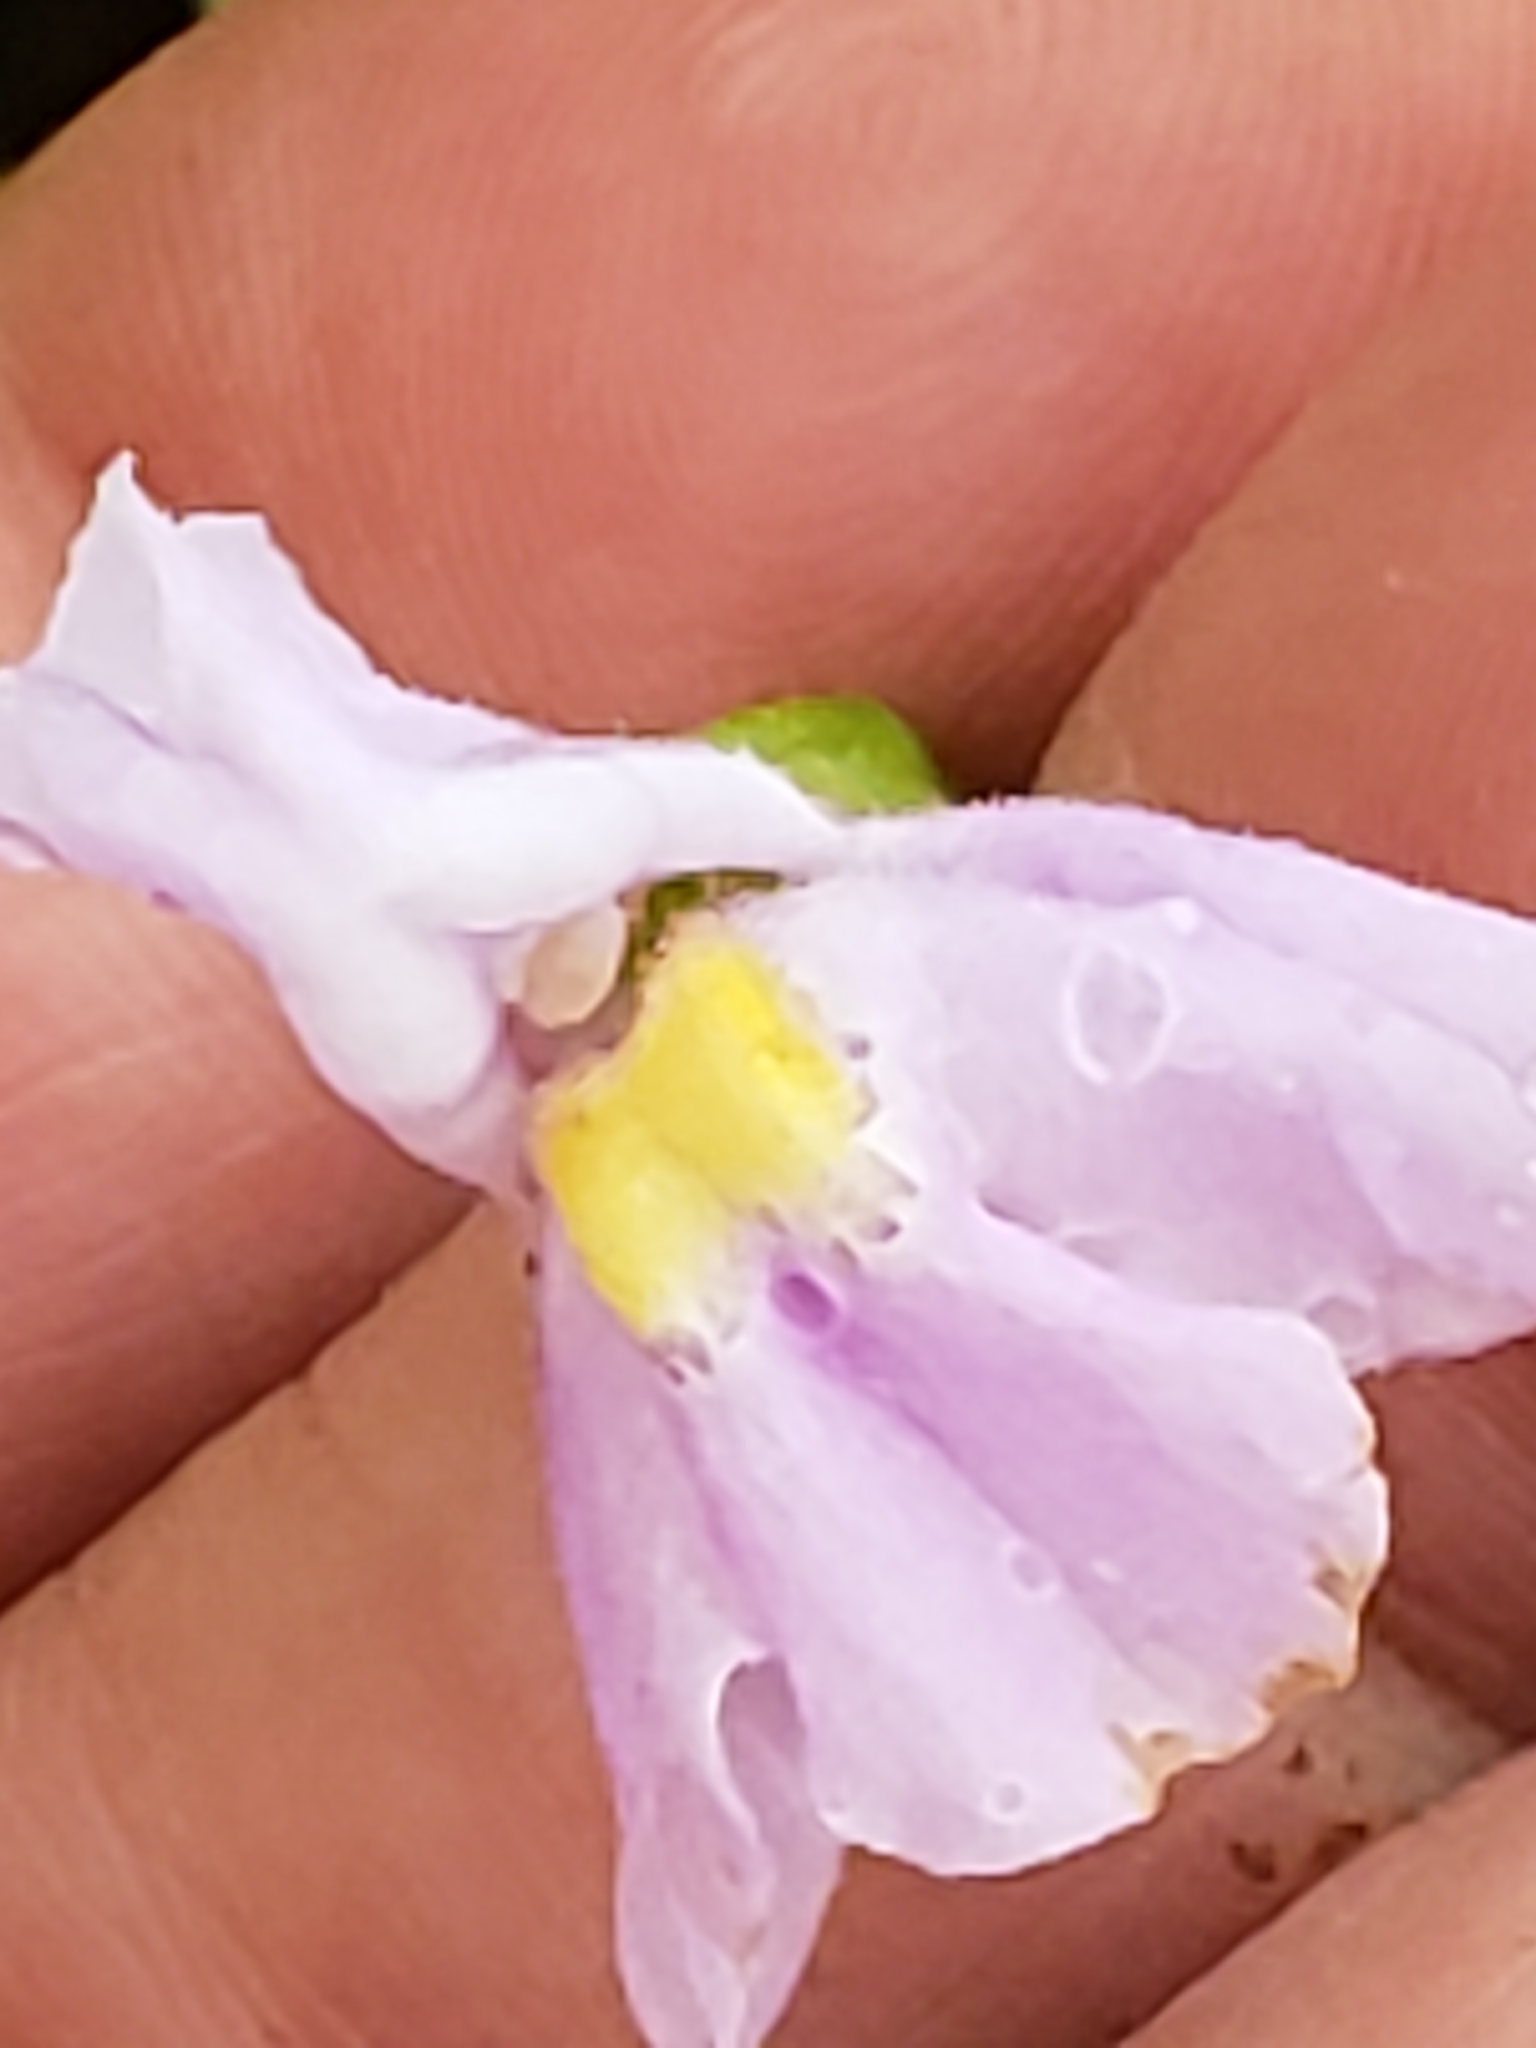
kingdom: Plantae
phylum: Tracheophyta
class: Magnoliopsida
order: Lamiales
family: Phrymaceae
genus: Mimulus
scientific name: Mimulus ringens
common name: Allegheny monkeyflower
